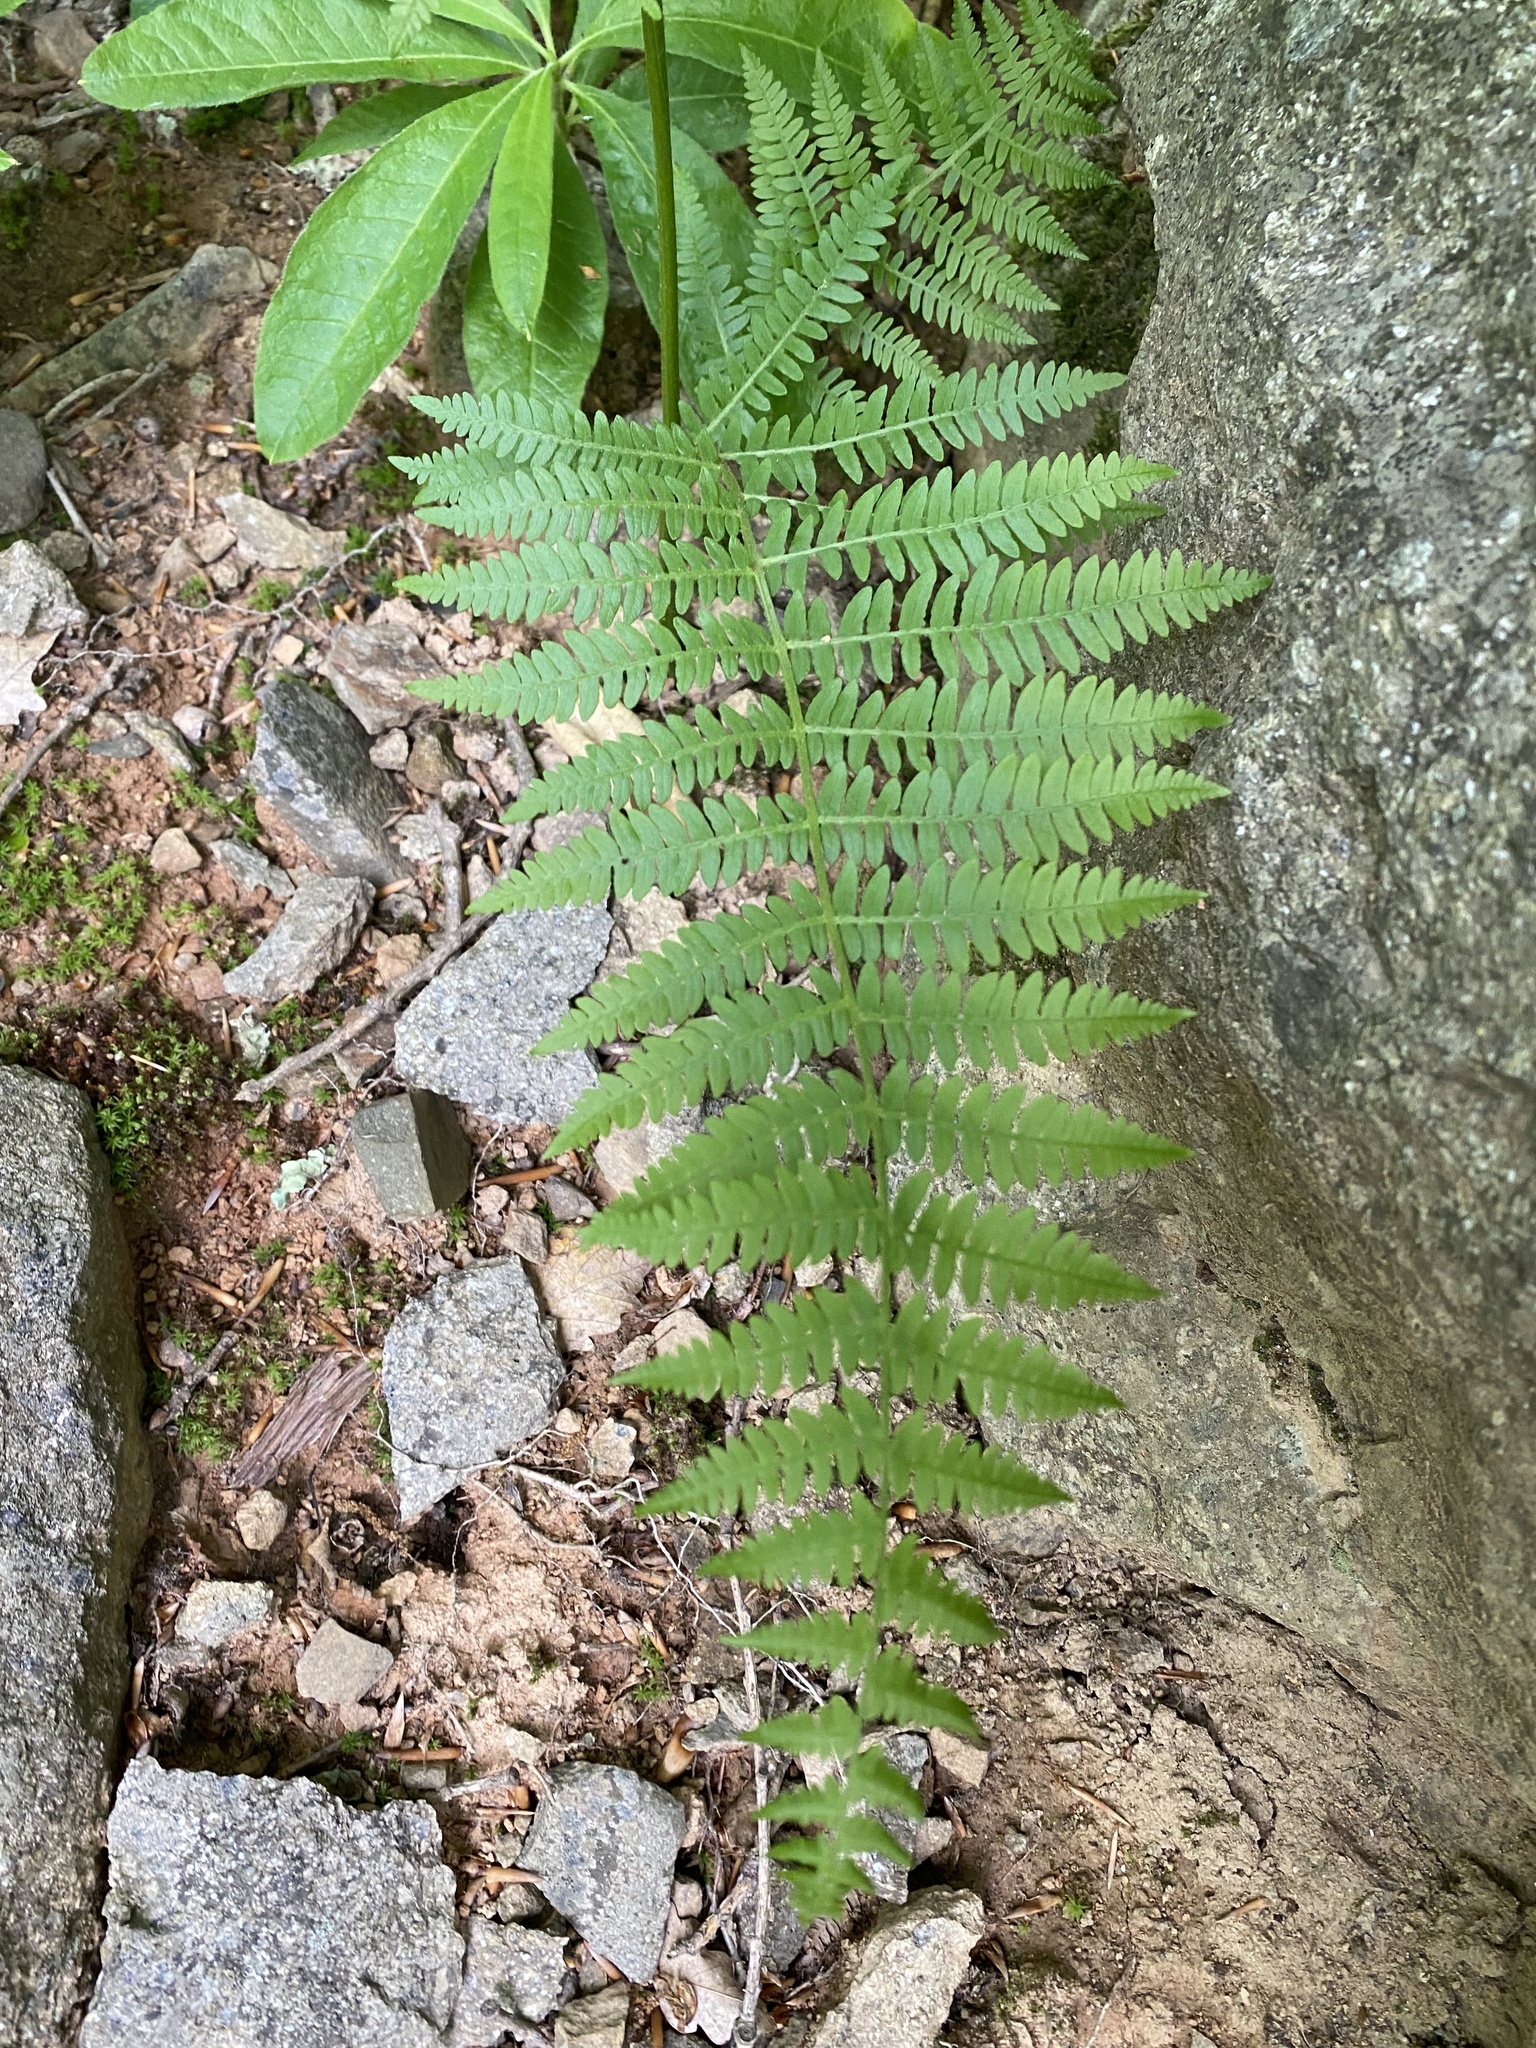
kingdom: Plantae
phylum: Tracheophyta
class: Polypodiopsida
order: Polypodiales
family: Dennstaedtiaceae
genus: Pteridium
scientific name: Pteridium tauricum
